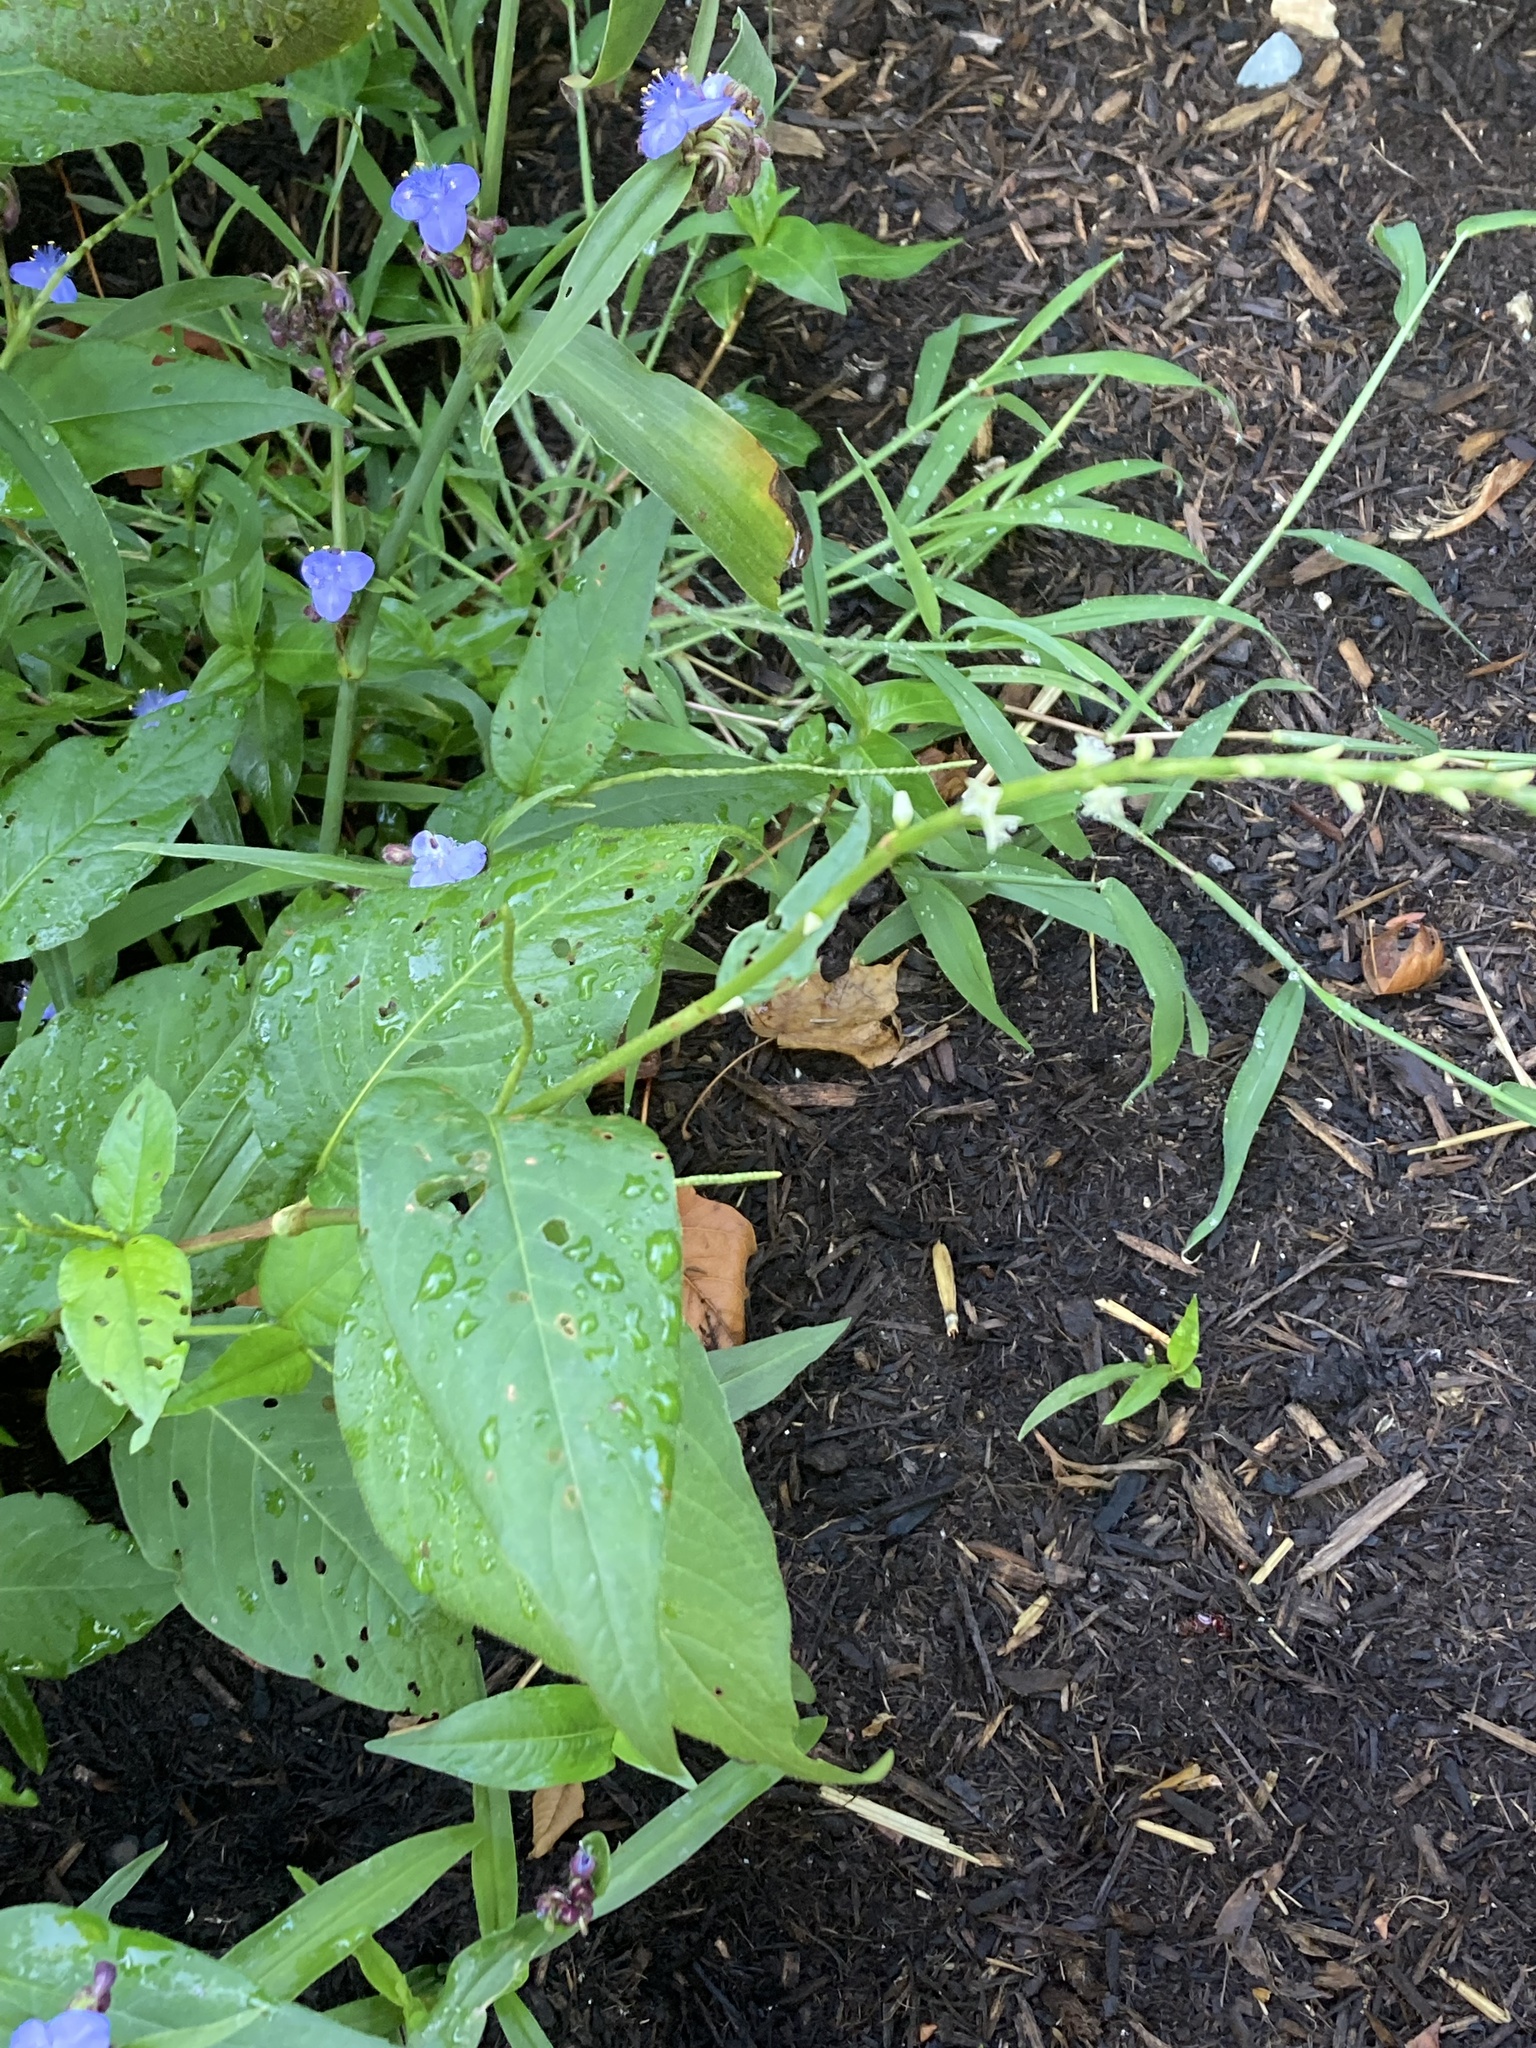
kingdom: Plantae
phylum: Tracheophyta
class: Magnoliopsida
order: Caryophyllales
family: Polygonaceae
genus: Persicaria
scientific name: Persicaria virginiana
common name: Jumpseed
